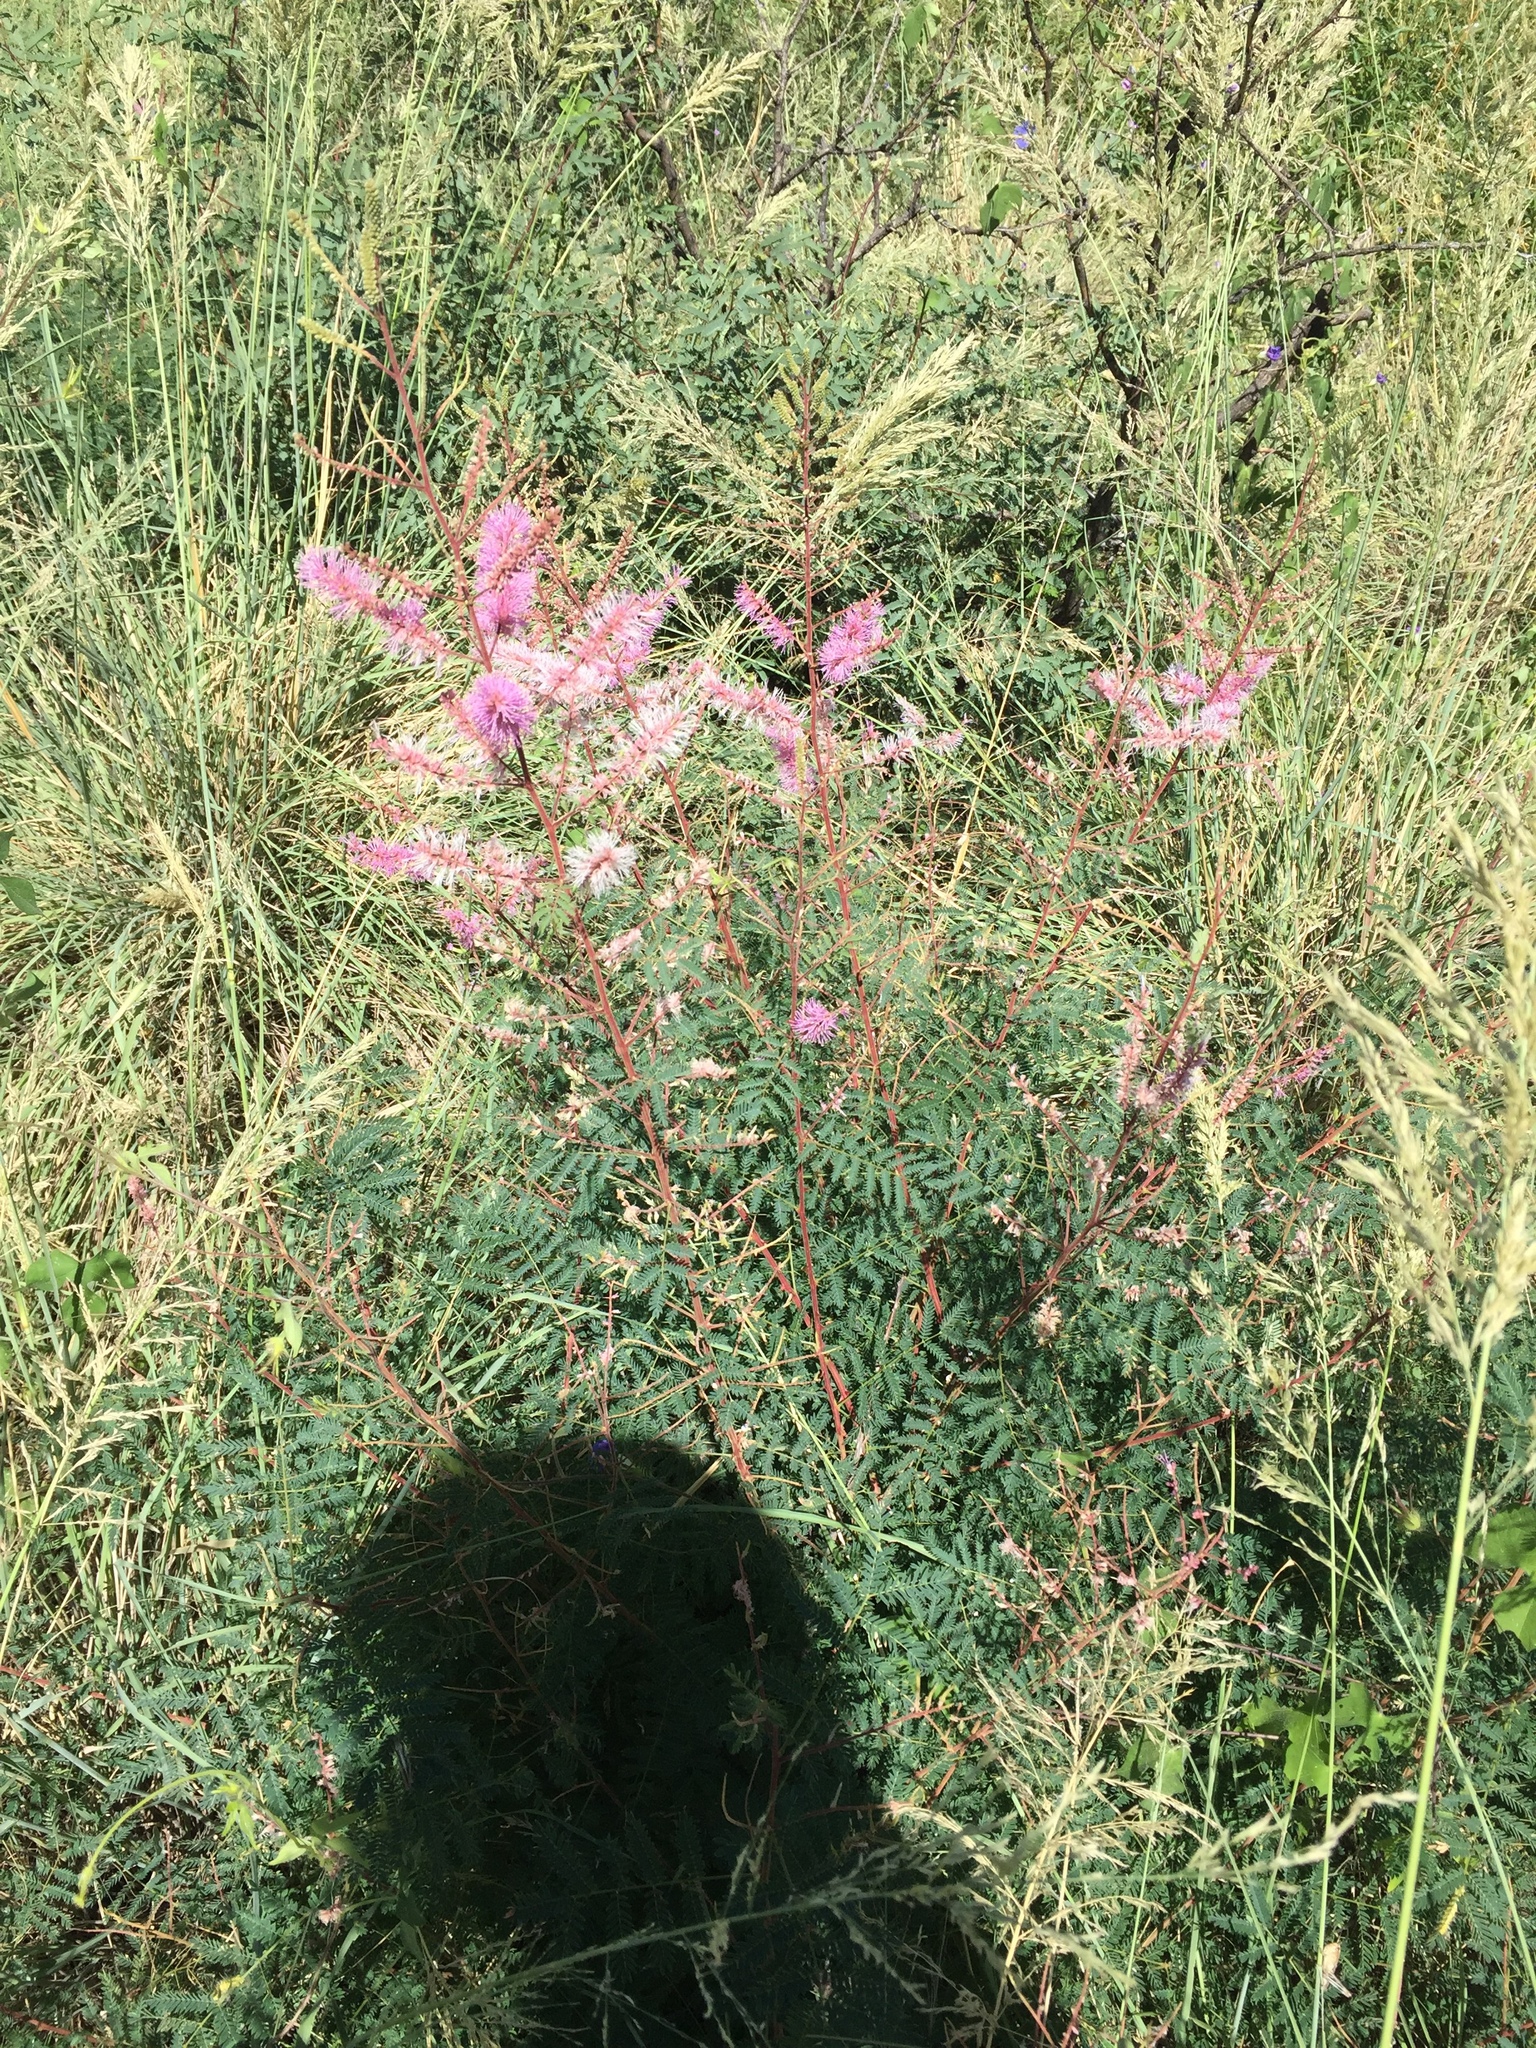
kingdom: Plantae
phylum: Tracheophyta
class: Magnoliopsida
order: Fabales
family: Fabaceae
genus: Mimosa
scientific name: Mimosa dysocarpa
